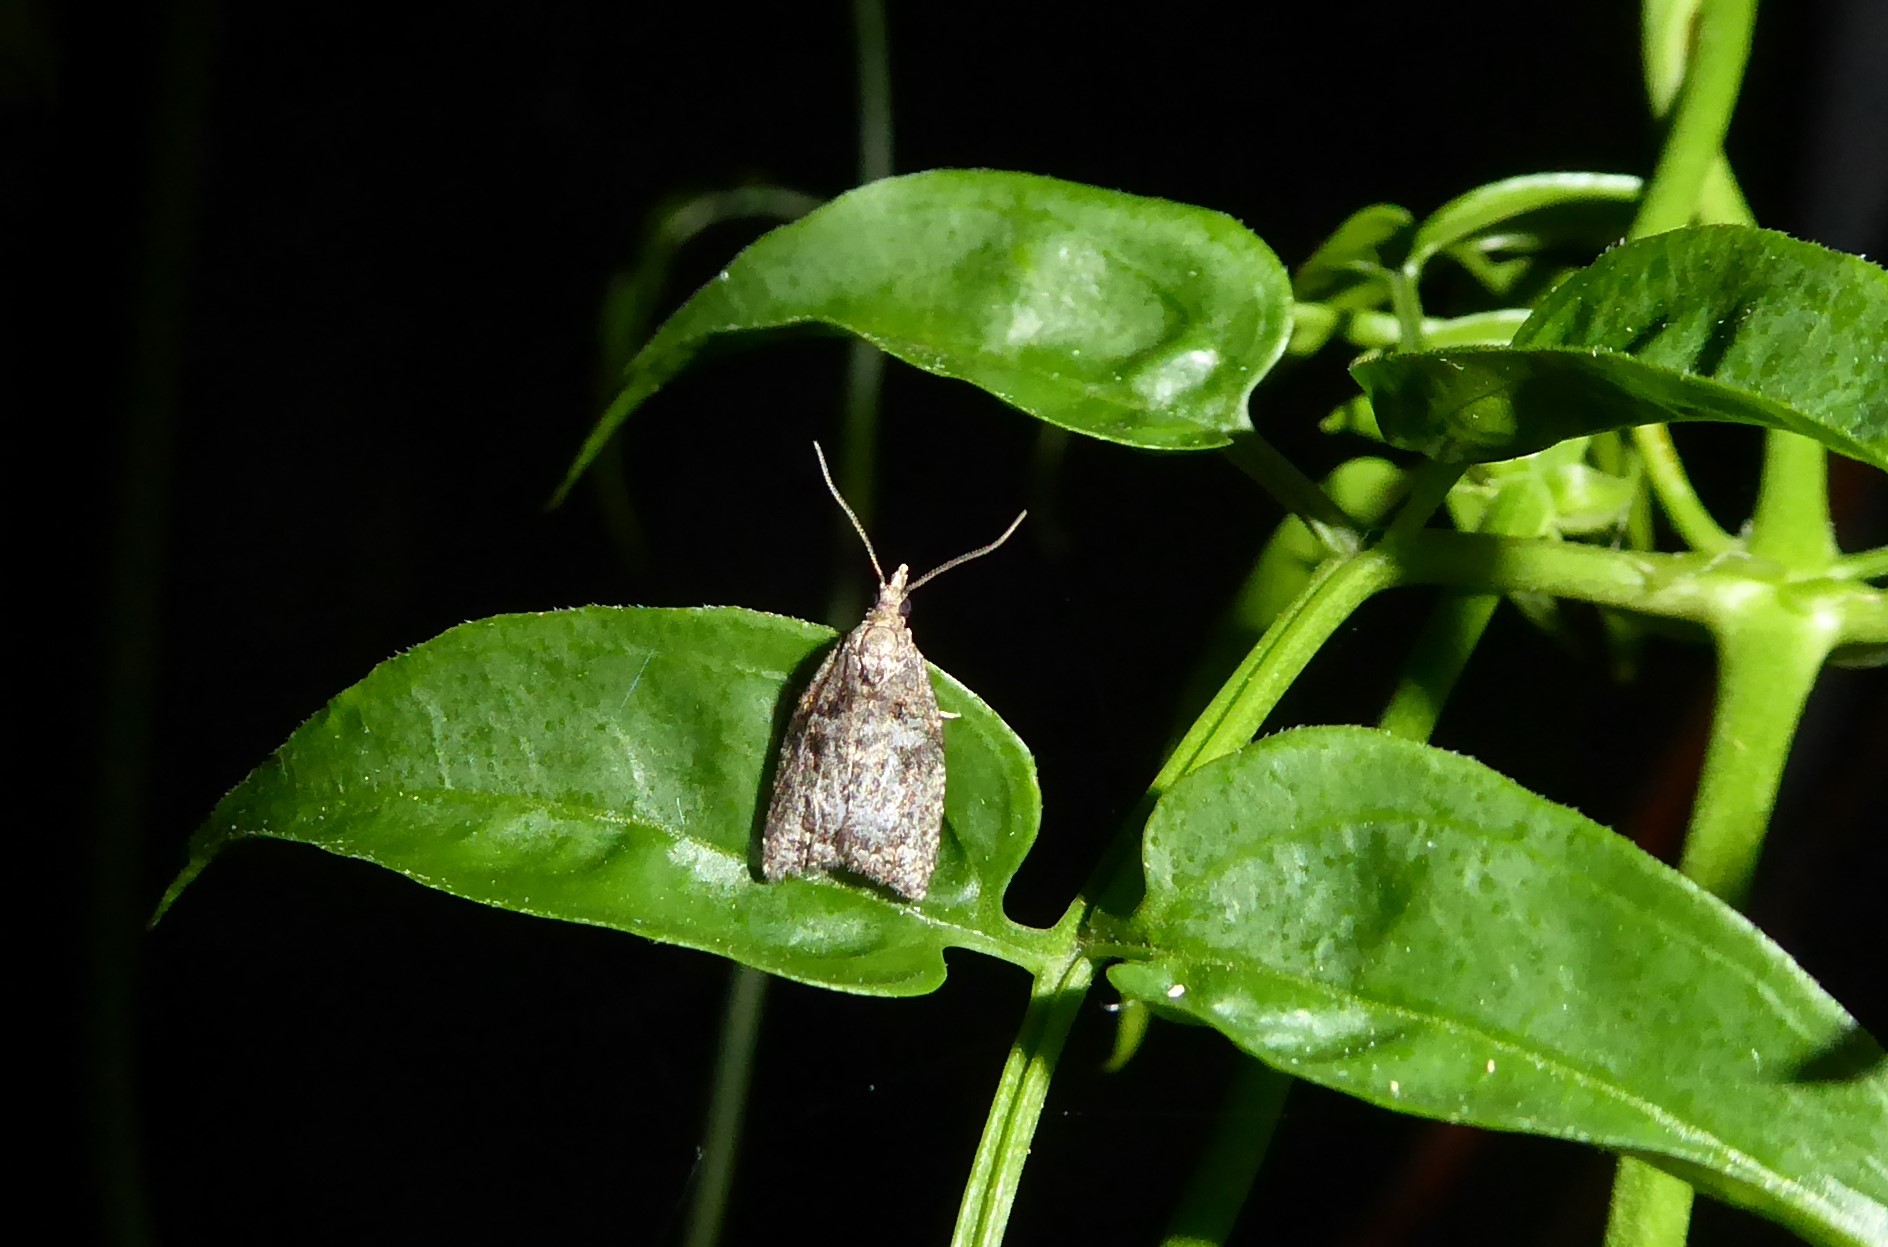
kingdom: Animalia
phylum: Arthropoda
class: Insecta
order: Lepidoptera
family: Tortricidae
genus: Capua
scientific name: Capua intractana
